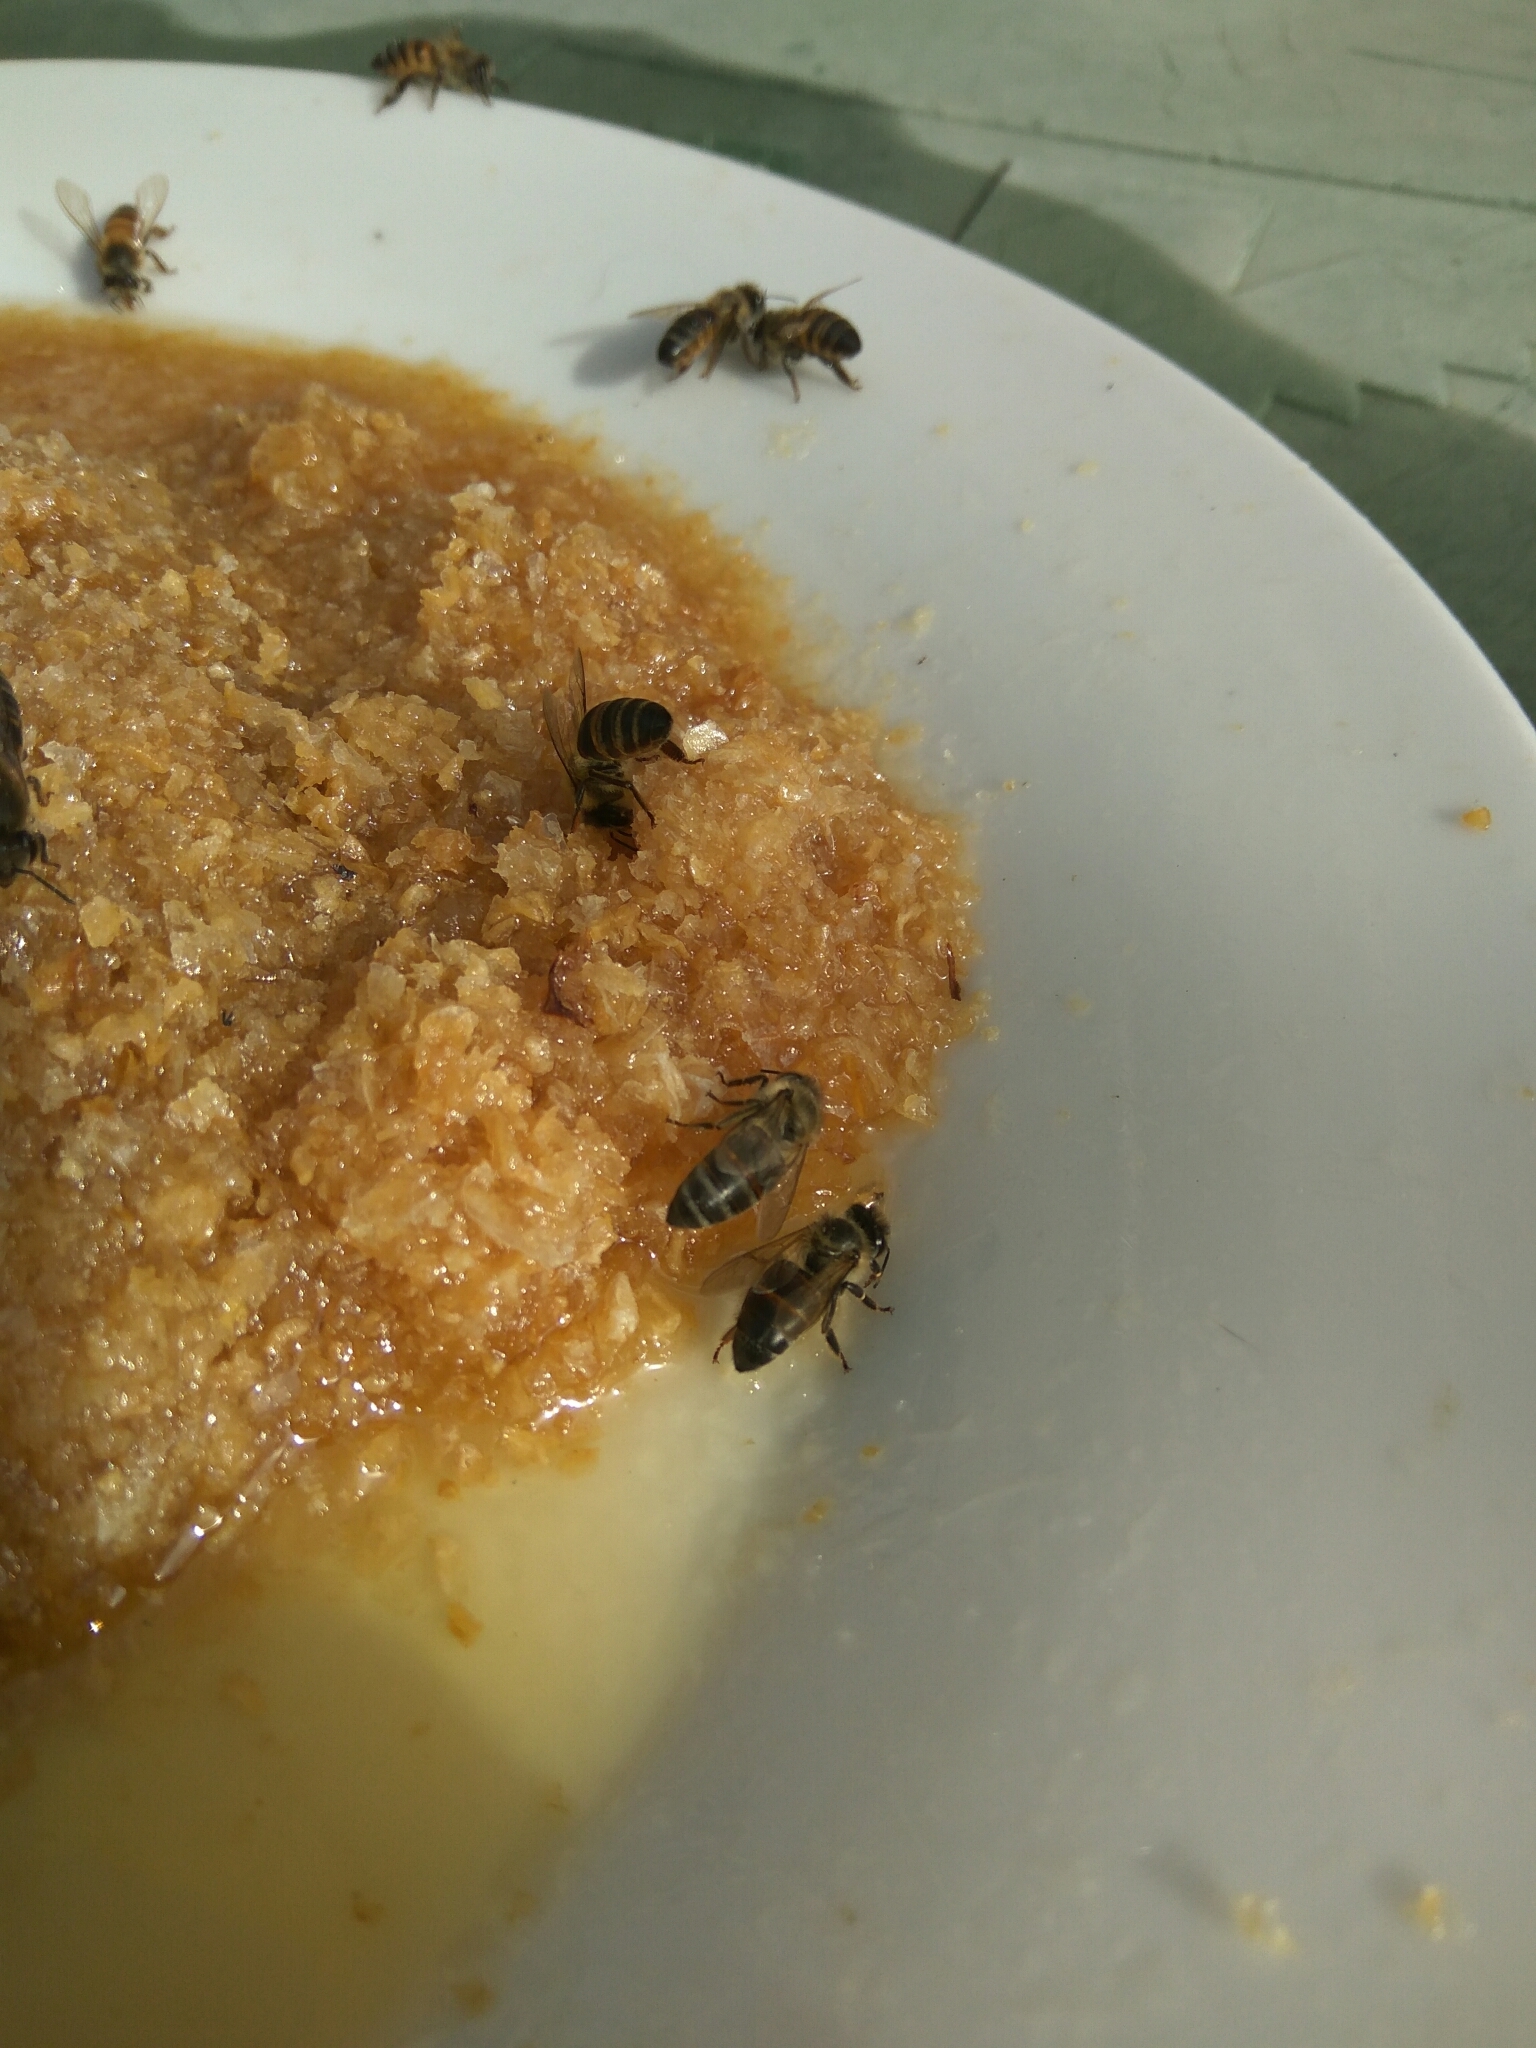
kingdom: Animalia
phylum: Arthropoda
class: Insecta
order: Hymenoptera
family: Apidae
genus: Apis
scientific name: Apis mellifera
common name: Honey bee
